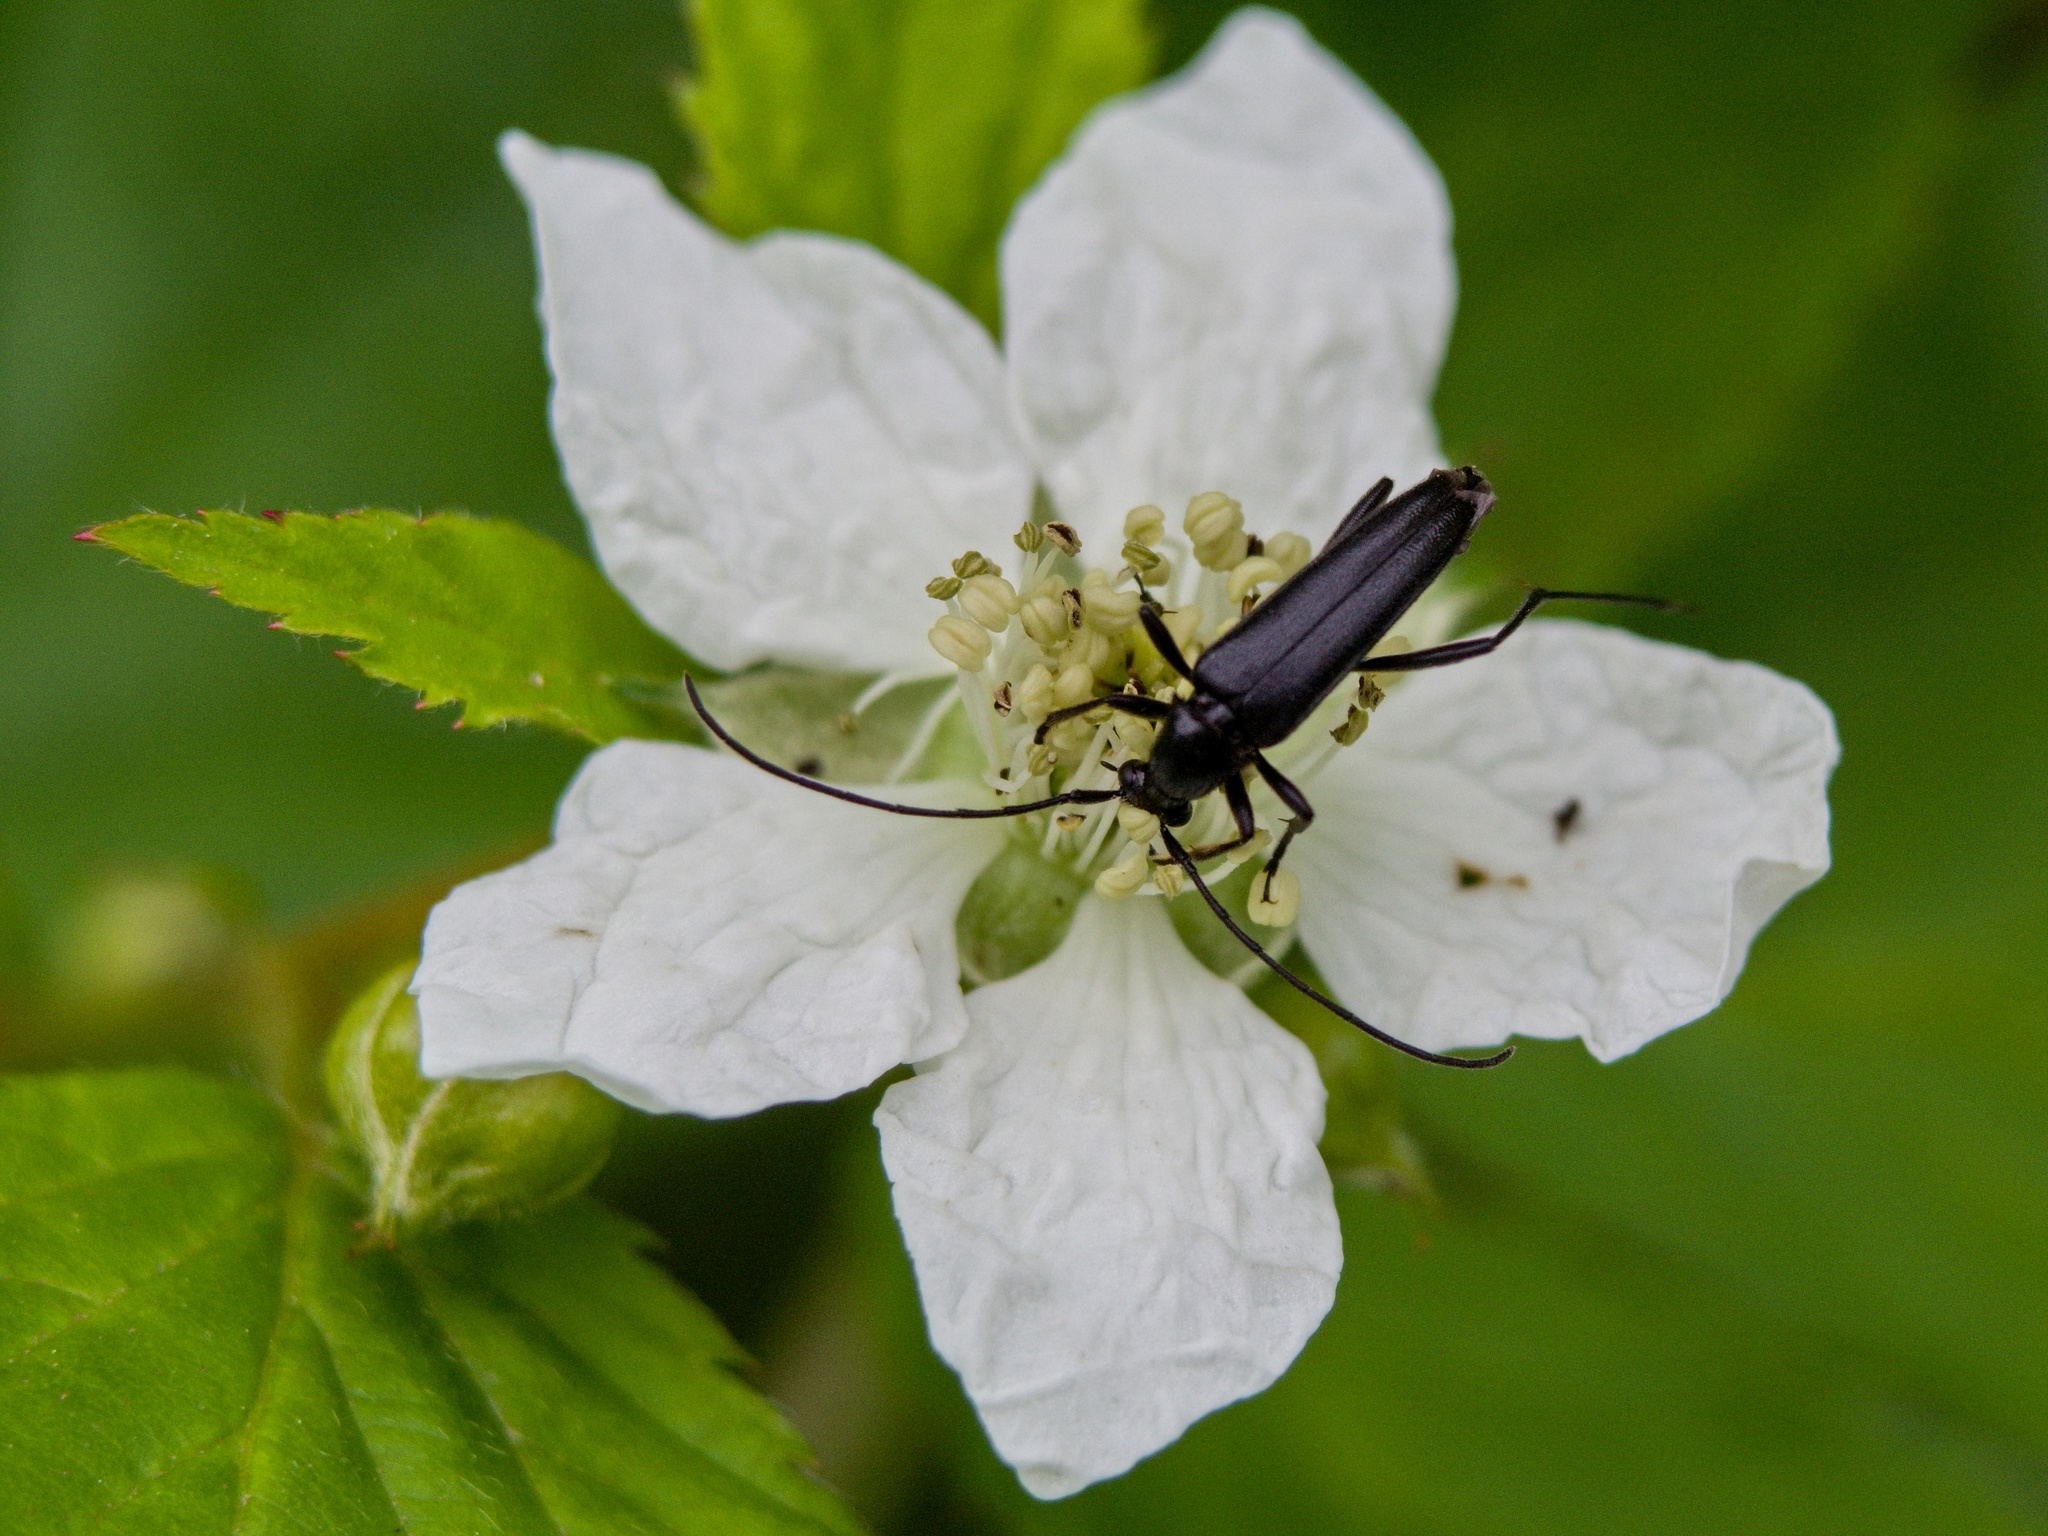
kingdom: Animalia
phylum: Arthropoda
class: Insecta
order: Coleoptera
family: Cerambycidae
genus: Stenurella
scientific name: Stenurella nigra
